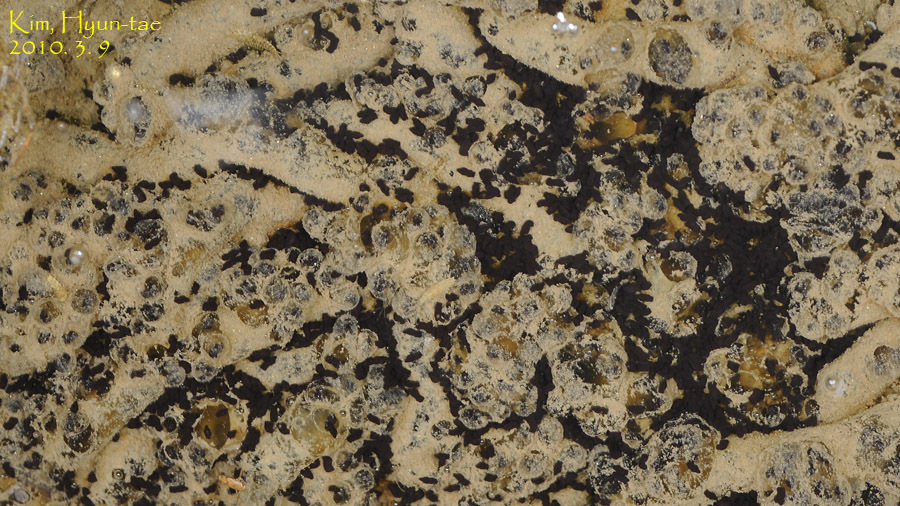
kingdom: Animalia
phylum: Chordata
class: Amphibia
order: Anura
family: Bufonidae
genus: Bufo
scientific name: Bufo gargarizans
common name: Asiatic toad
